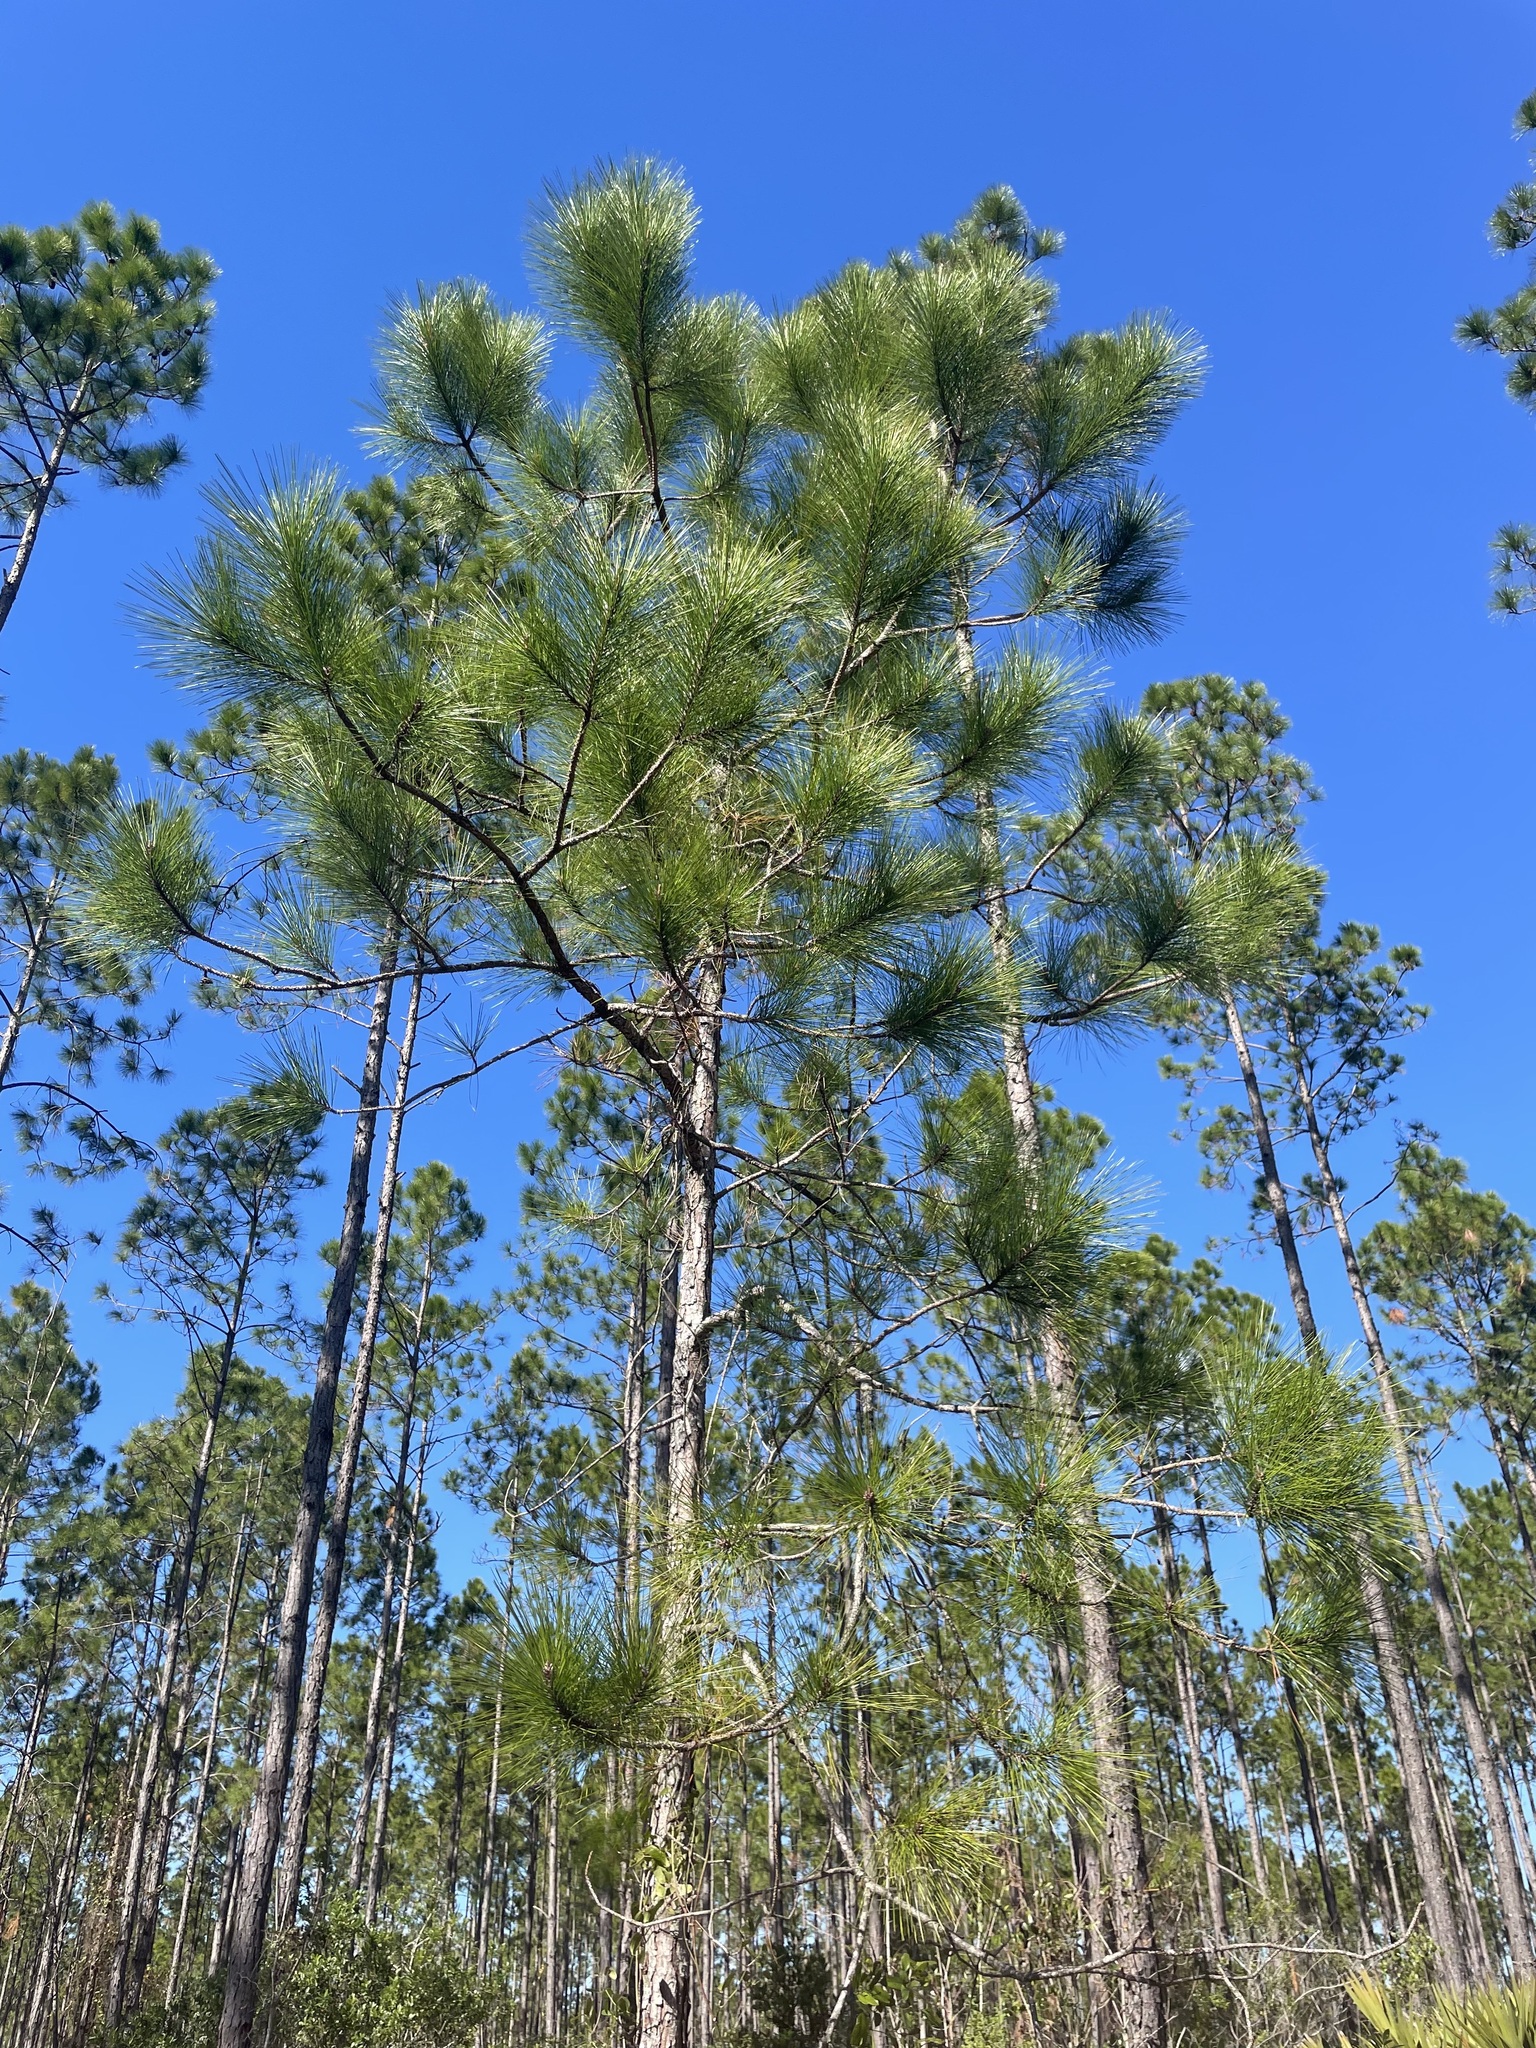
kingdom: Plantae
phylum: Tracheophyta
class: Pinopsida
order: Pinales
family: Pinaceae
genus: Pinus
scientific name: Pinus palustris
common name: Longleaf pine
